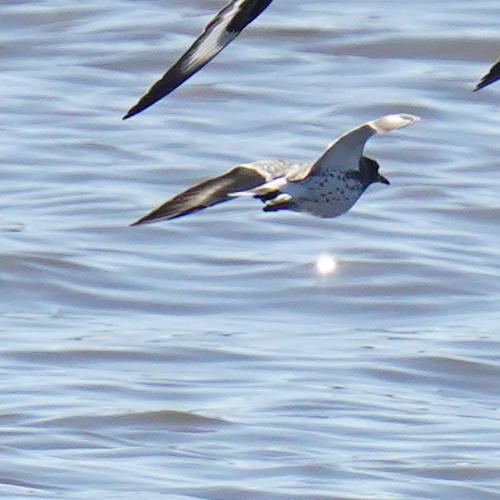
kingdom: Animalia
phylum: Chordata
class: Aves
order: Charadriiformes
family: Scolopacidae
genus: Calidris
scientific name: Calidris virgata
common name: Surfbird
